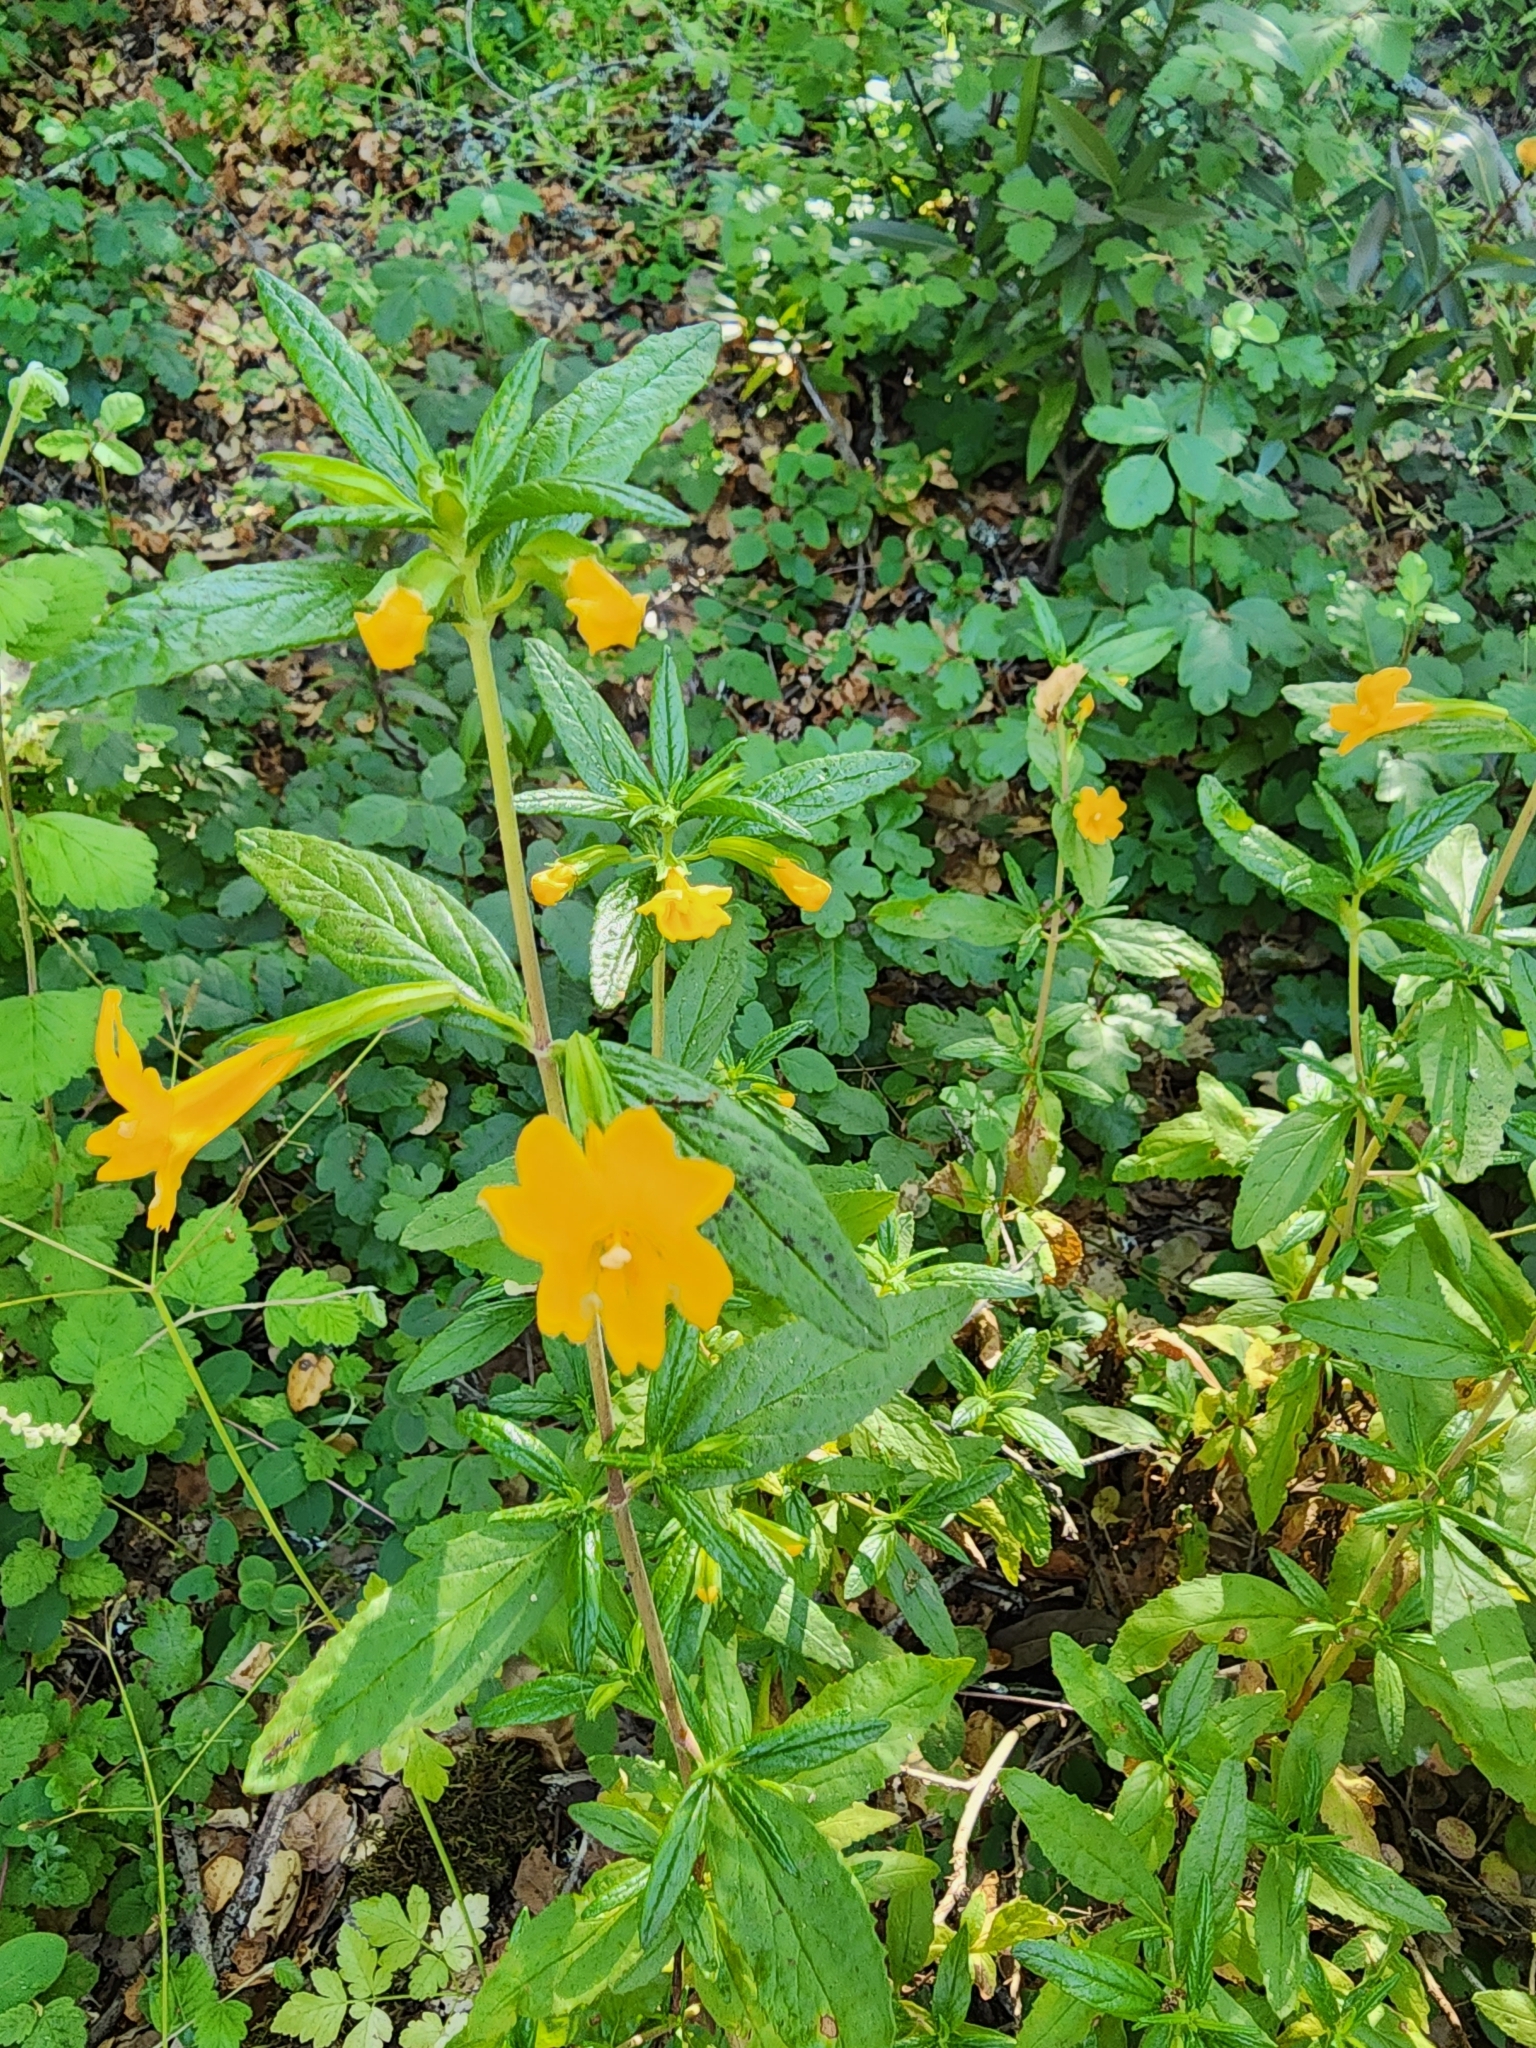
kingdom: Plantae
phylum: Tracheophyta
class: Magnoliopsida
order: Lamiales
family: Phrymaceae
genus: Diplacus
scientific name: Diplacus aurantiacus
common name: Bush monkey-flower
